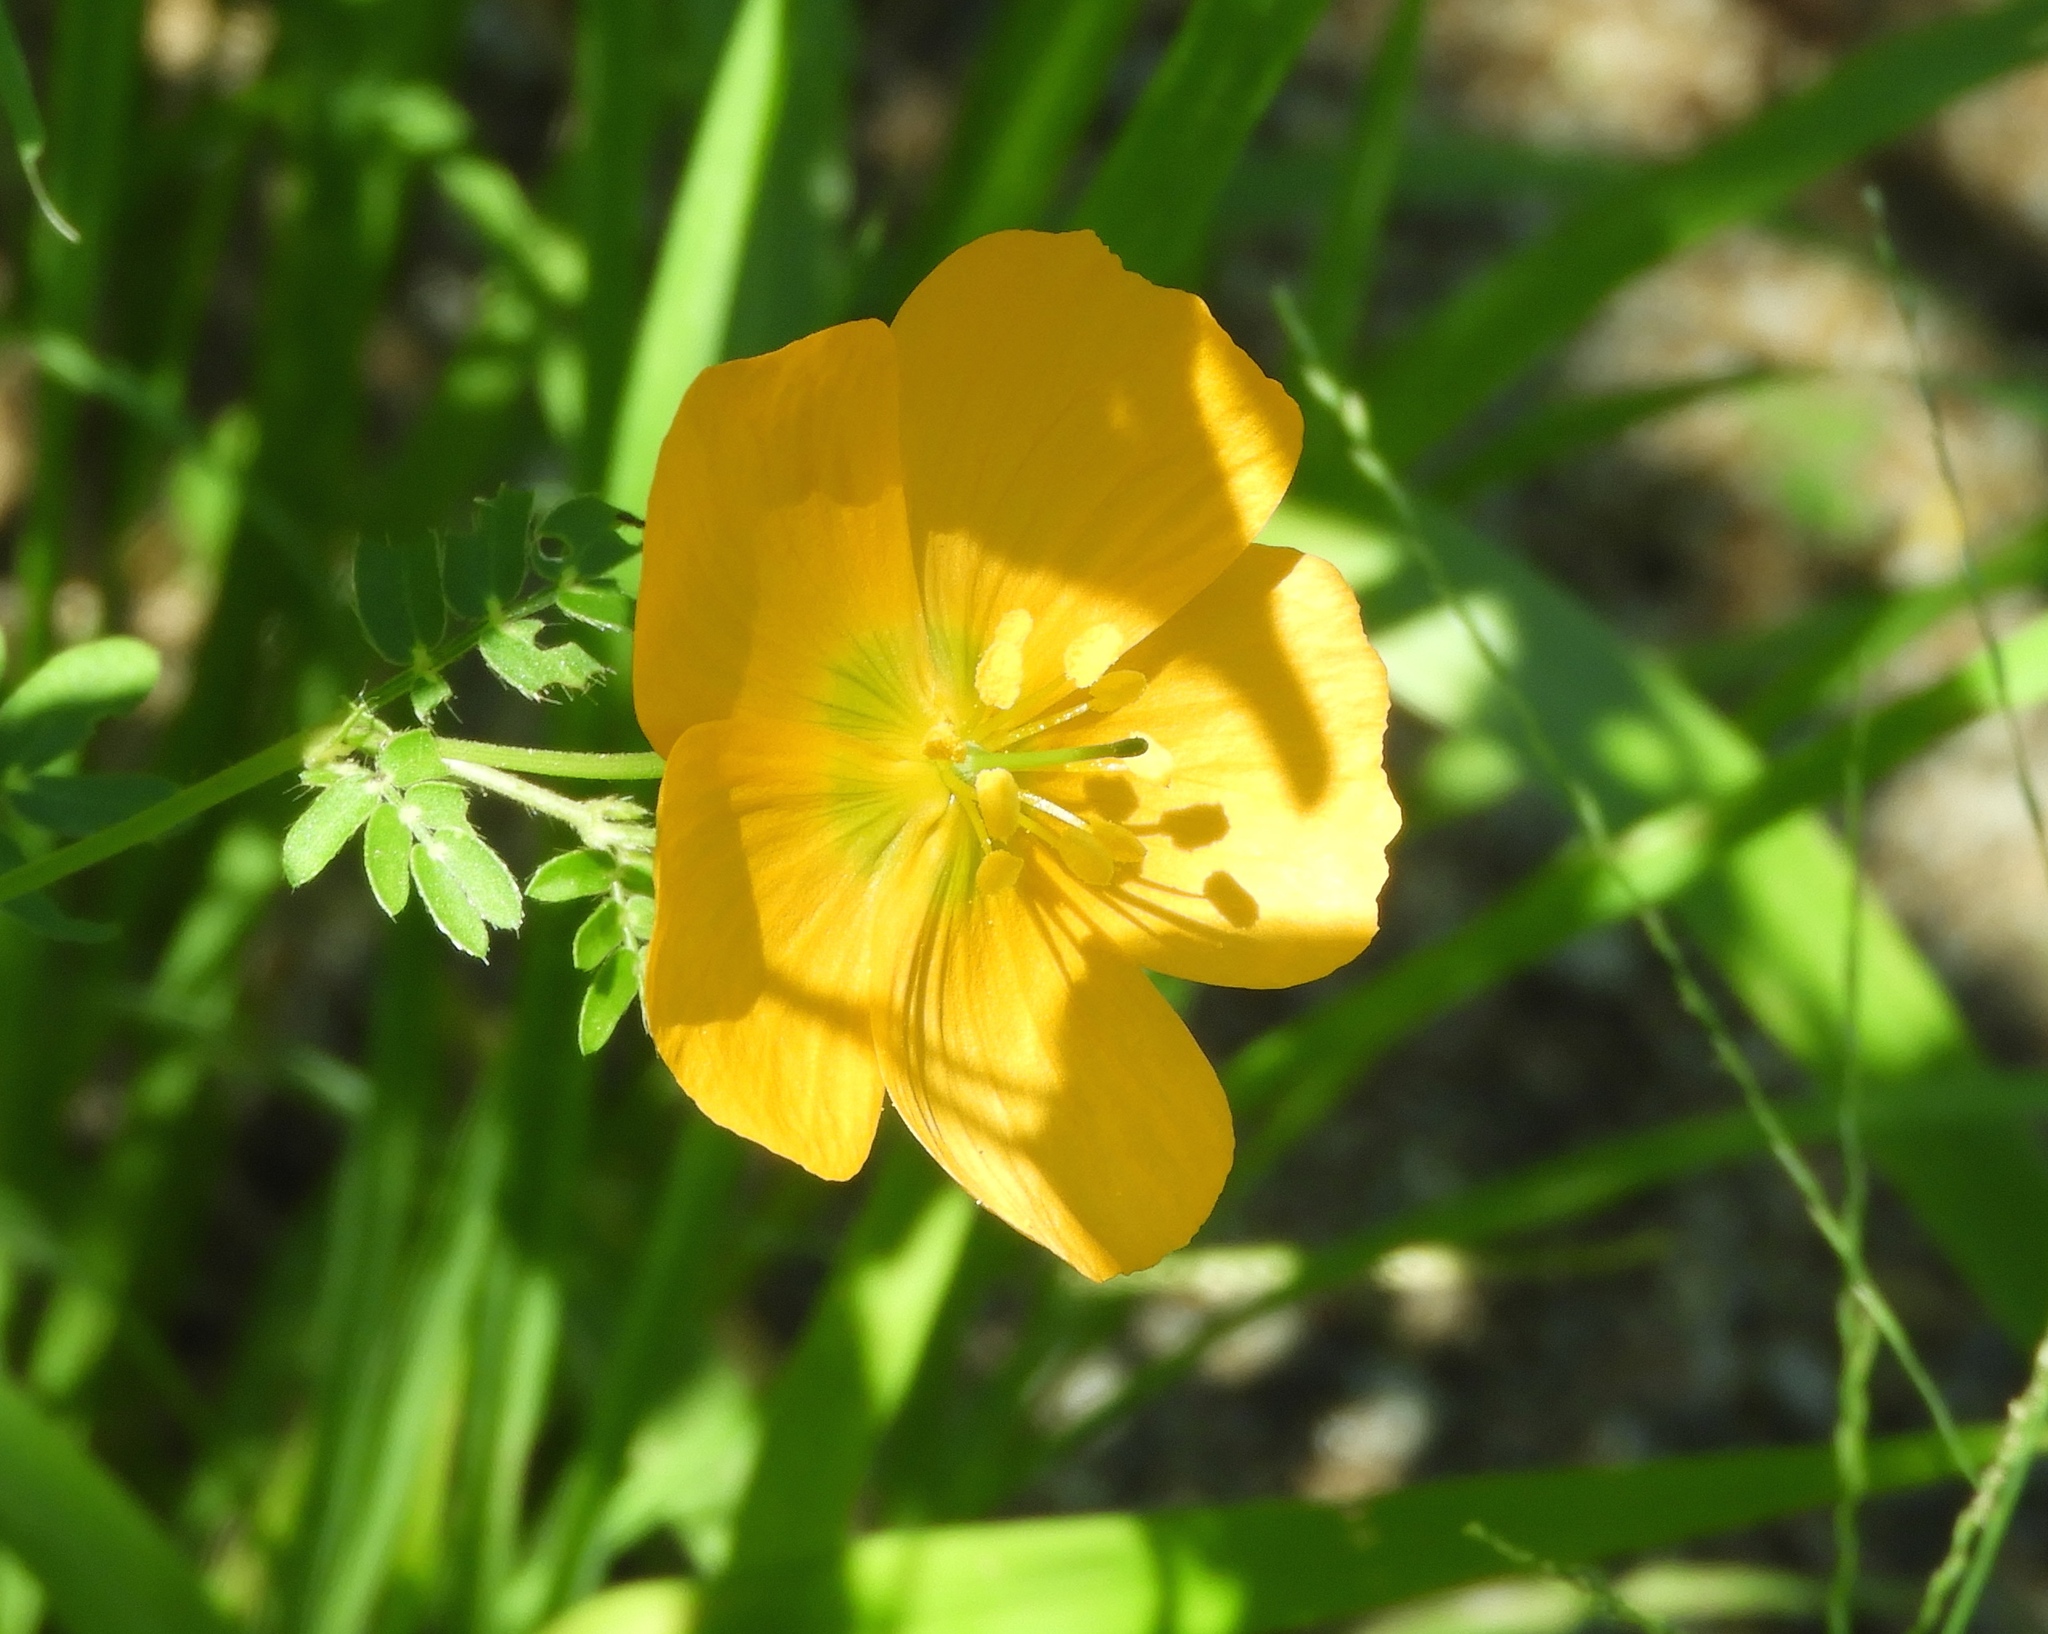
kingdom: Plantae
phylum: Tracheophyta
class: Magnoliopsida
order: Zygophyllales
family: Zygophyllaceae
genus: Kallstroemia
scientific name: Kallstroemia grandiflora
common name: Arizona-poppy
